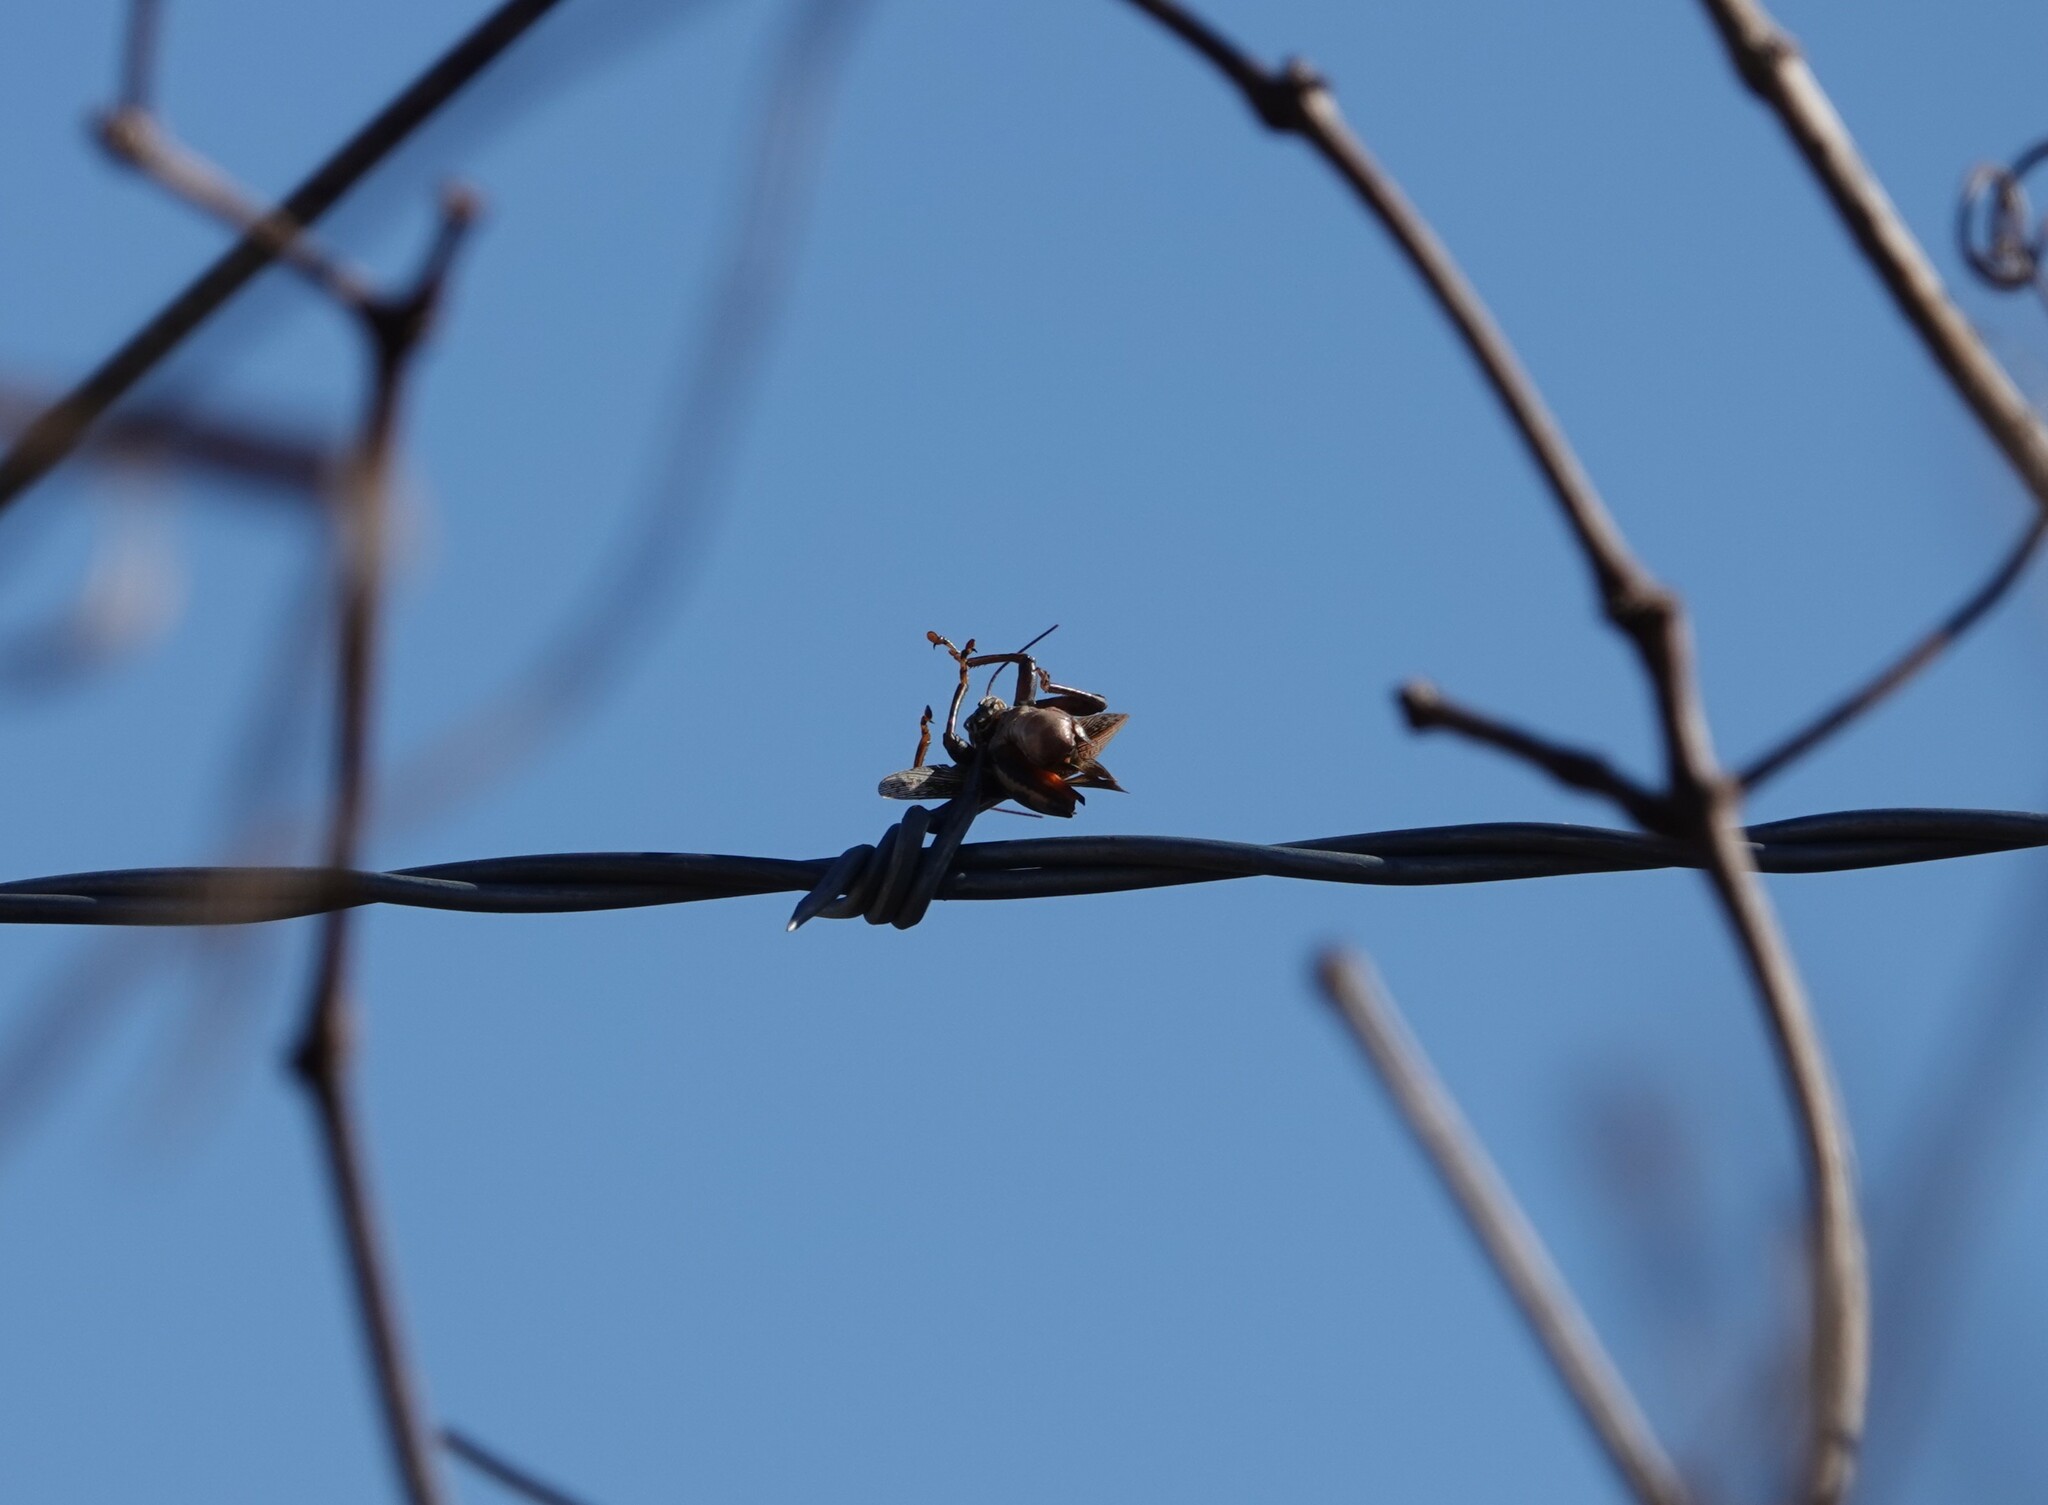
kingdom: Animalia
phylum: Chordata
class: Aves
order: Passeriformes
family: Laniidae
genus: Lanius
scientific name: Lanius ludovicianus
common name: Loggerhead shrike
